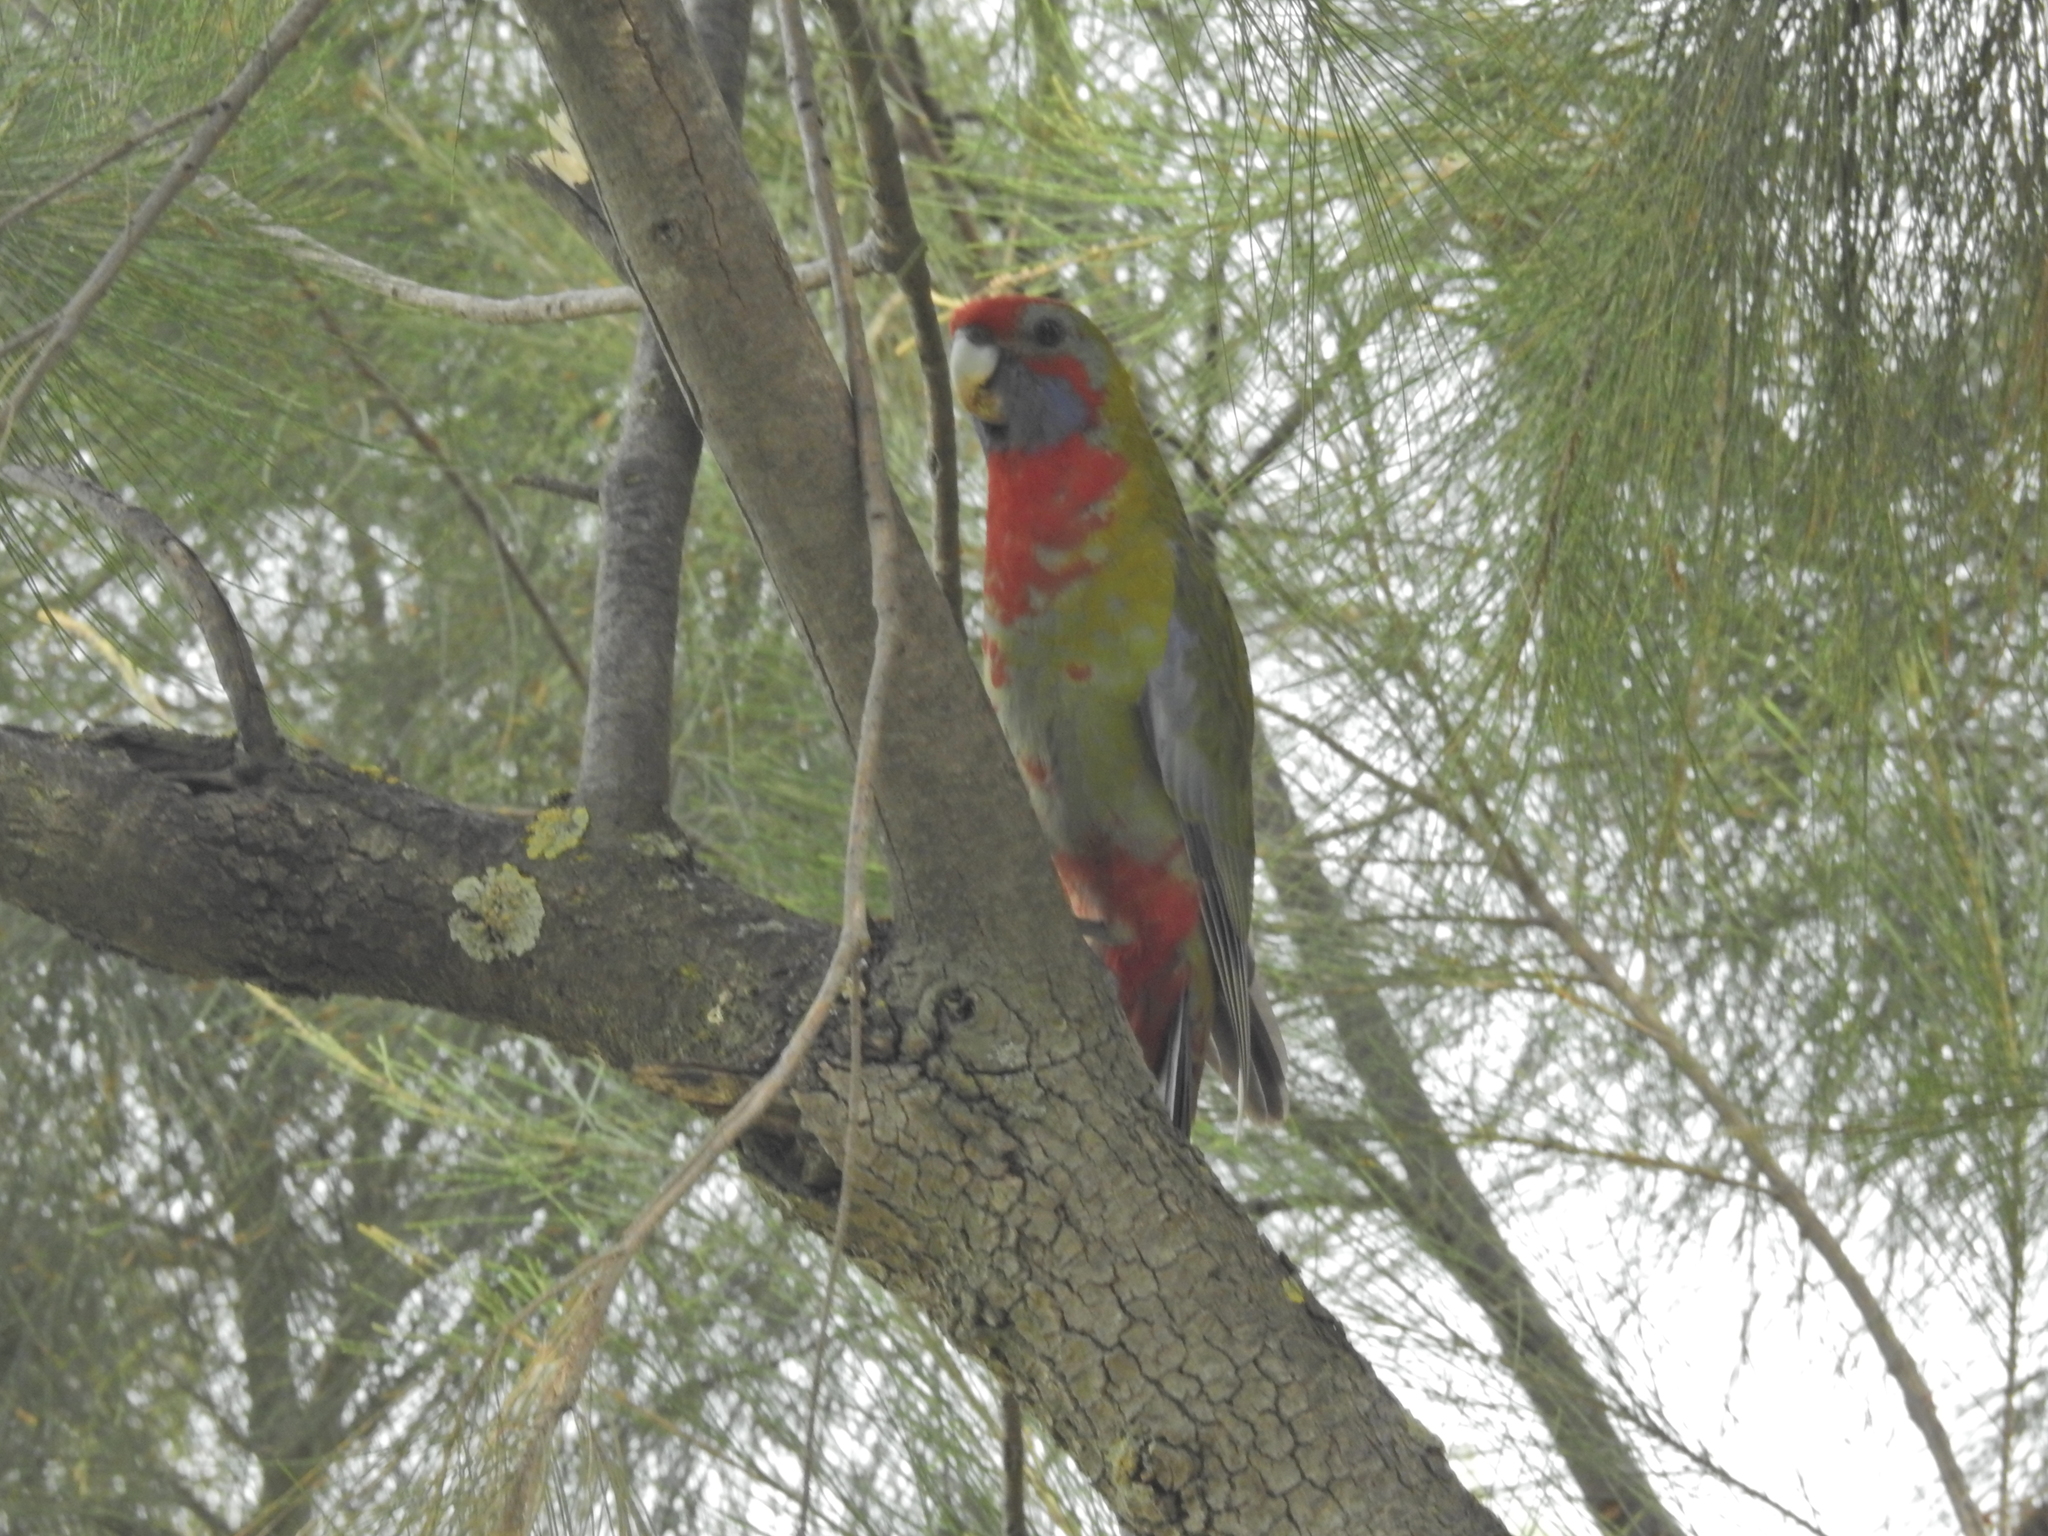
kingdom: Animalia
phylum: Chordata
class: Aves
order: Psittaciformes
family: Psittacidae
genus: Platycercus
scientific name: Platycercus elegans
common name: Crimson rosella
